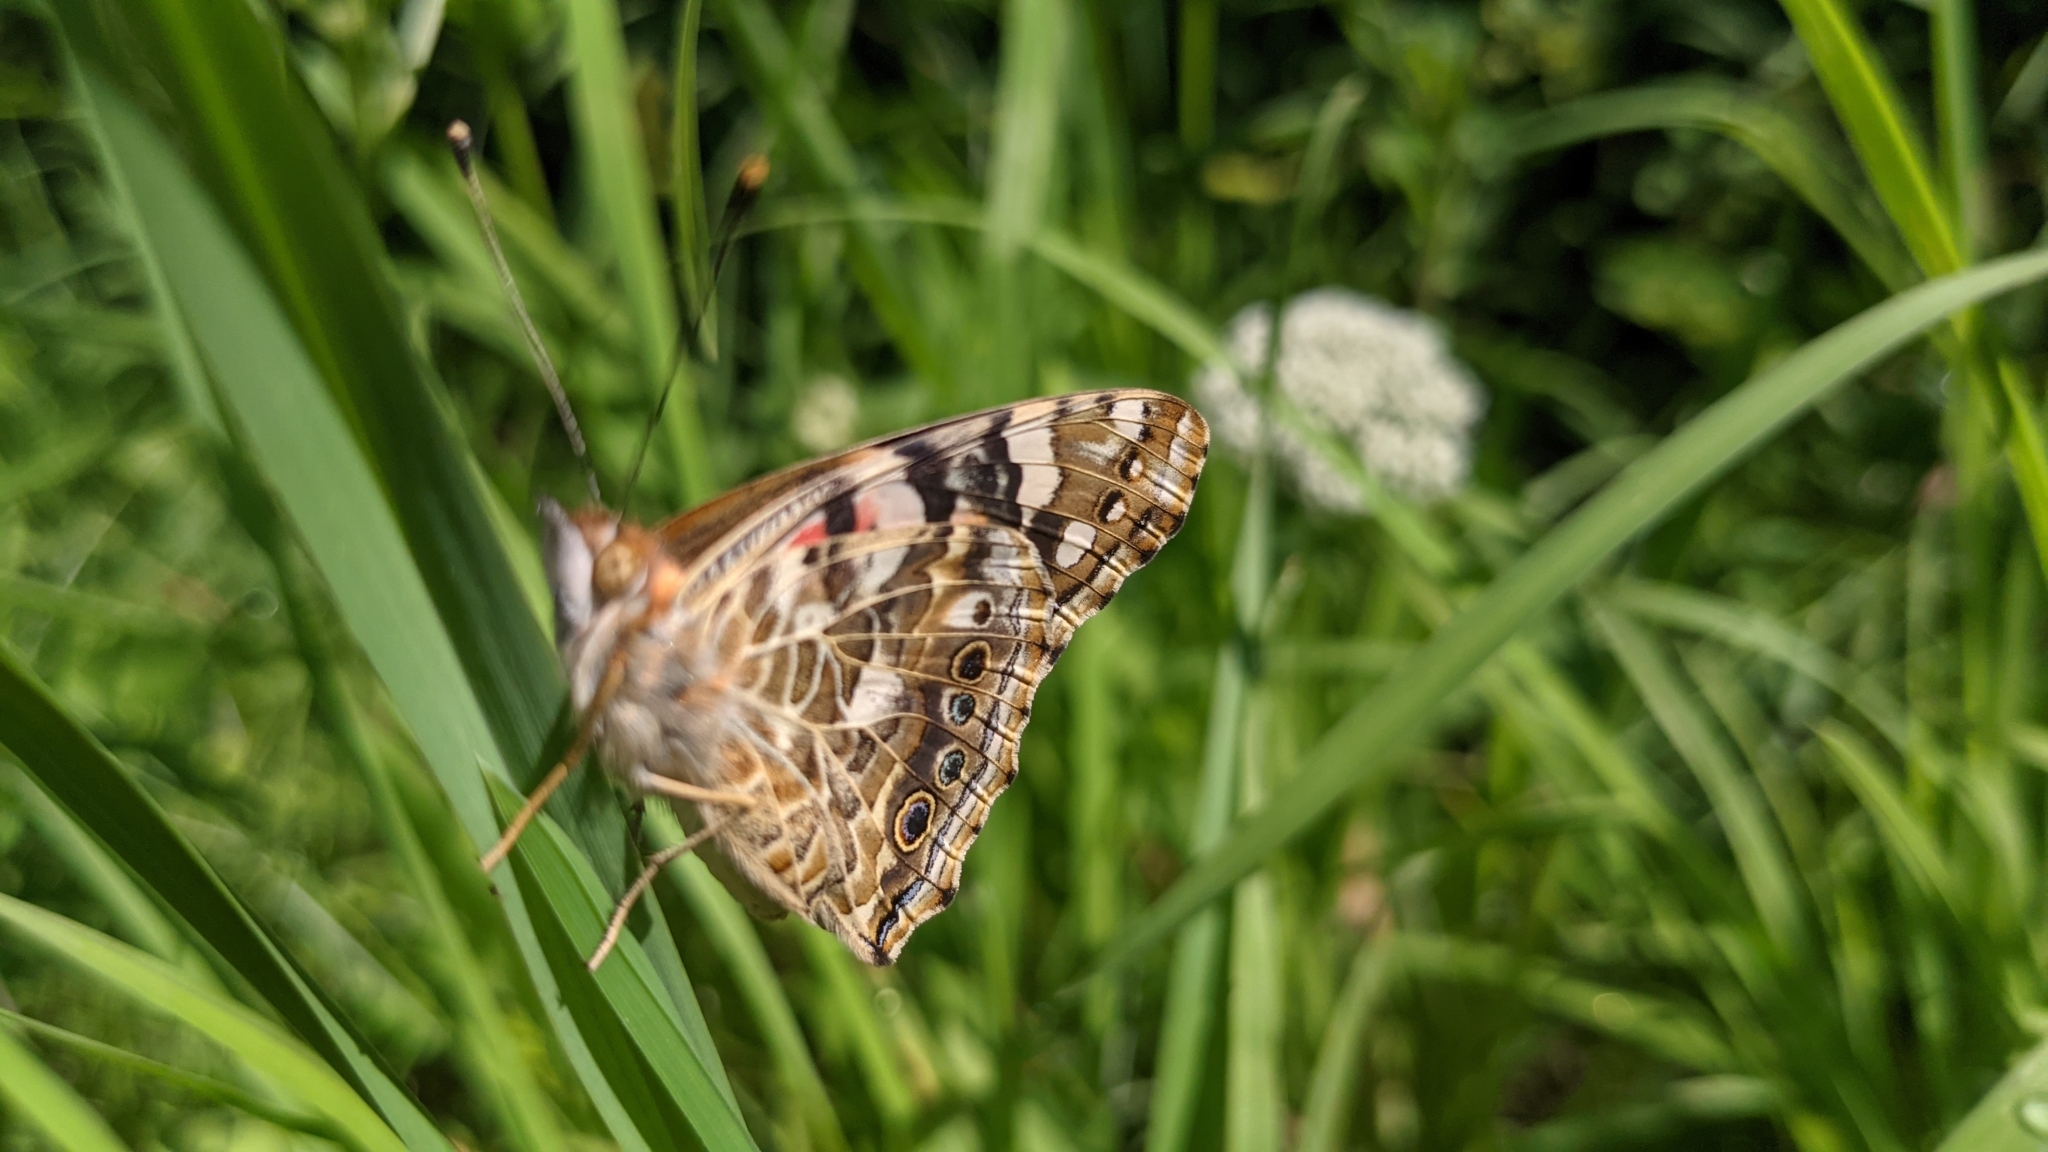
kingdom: Animalia
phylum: Arthropoda
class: Insecta
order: Lepidoptera
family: Nymphalidae
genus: Vanessa
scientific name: Vanessa cardui
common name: Painted lady
